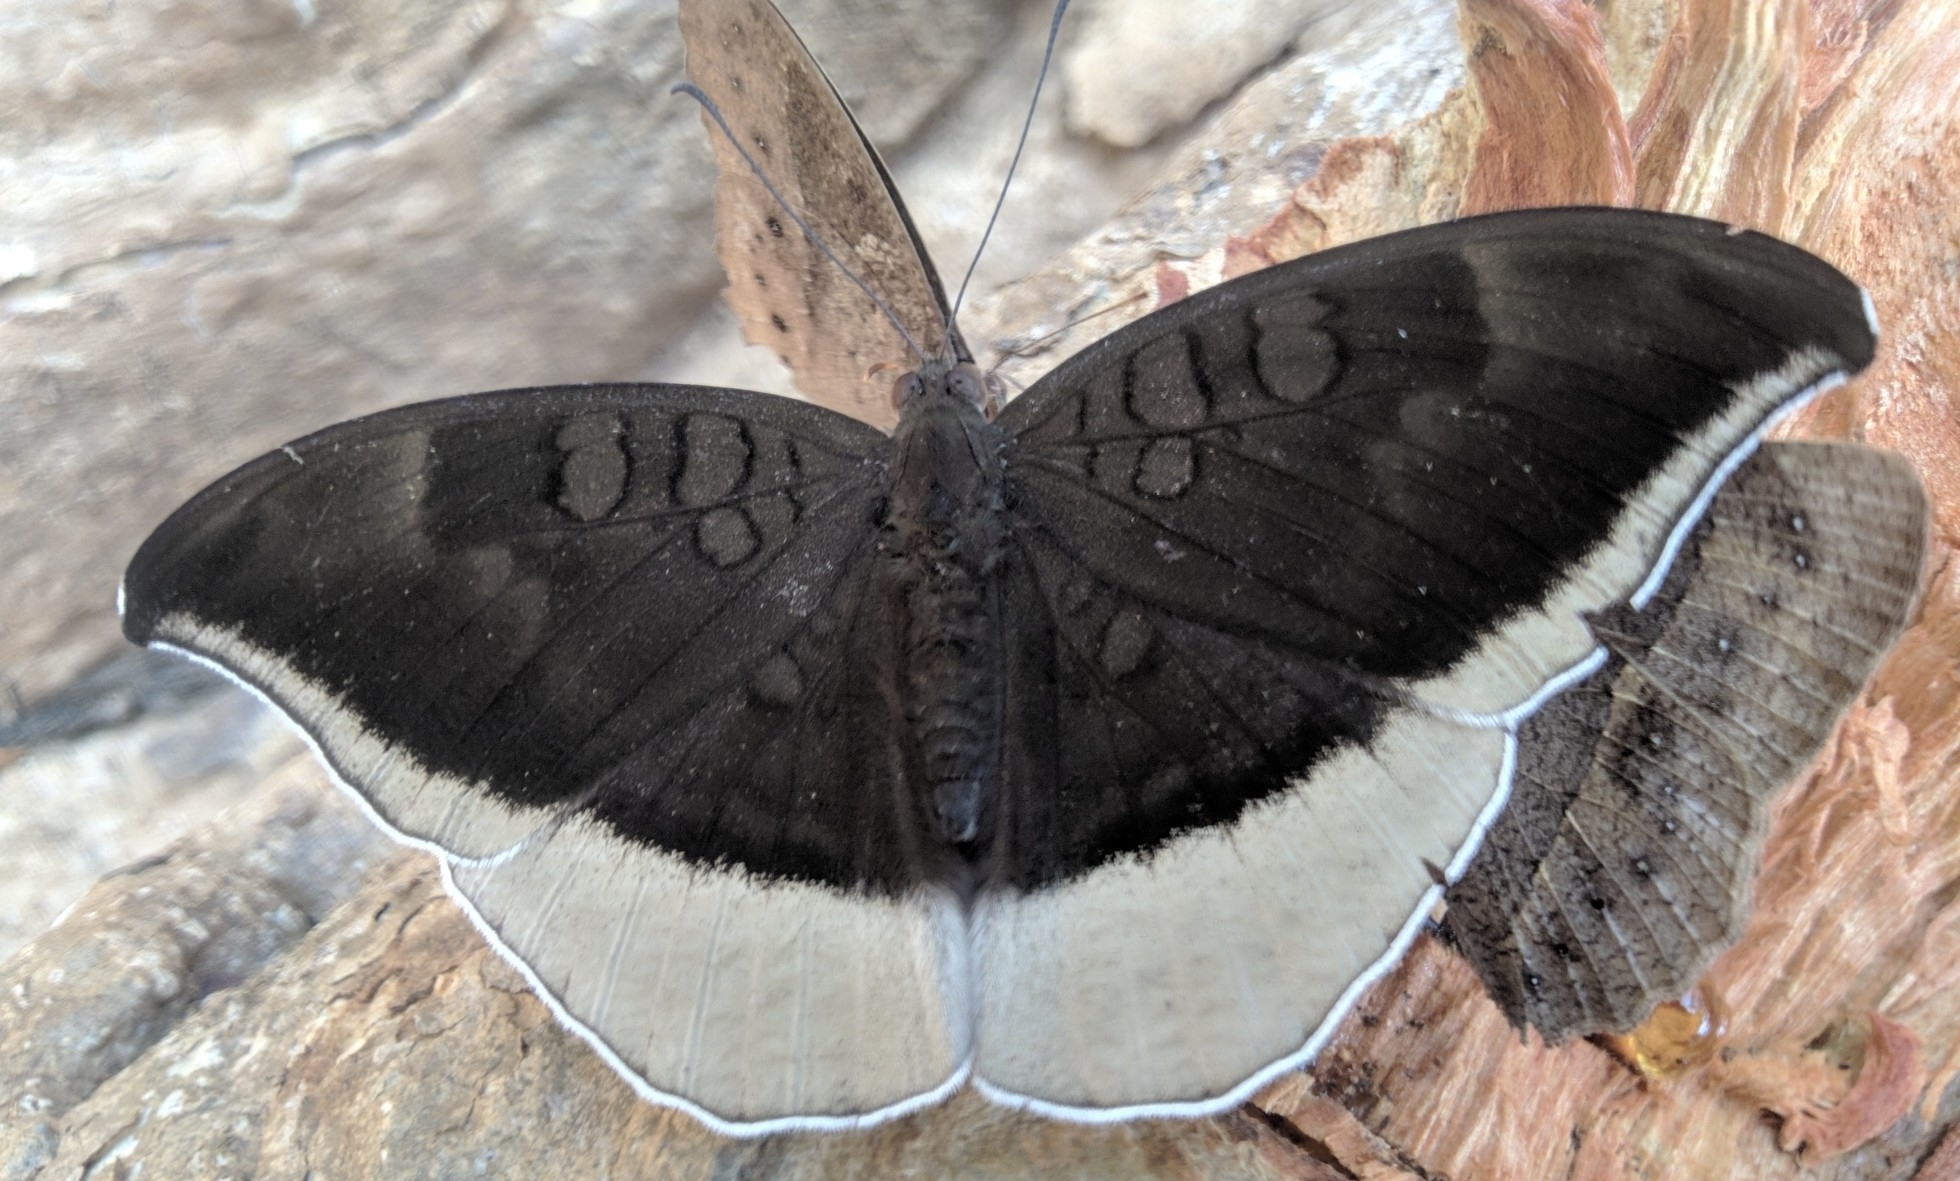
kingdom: Animalia
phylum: Arthropoda
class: Insecta
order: Lepidoptera
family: Nymphalidae
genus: Tanaecia
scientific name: Tanaecia lepidea
